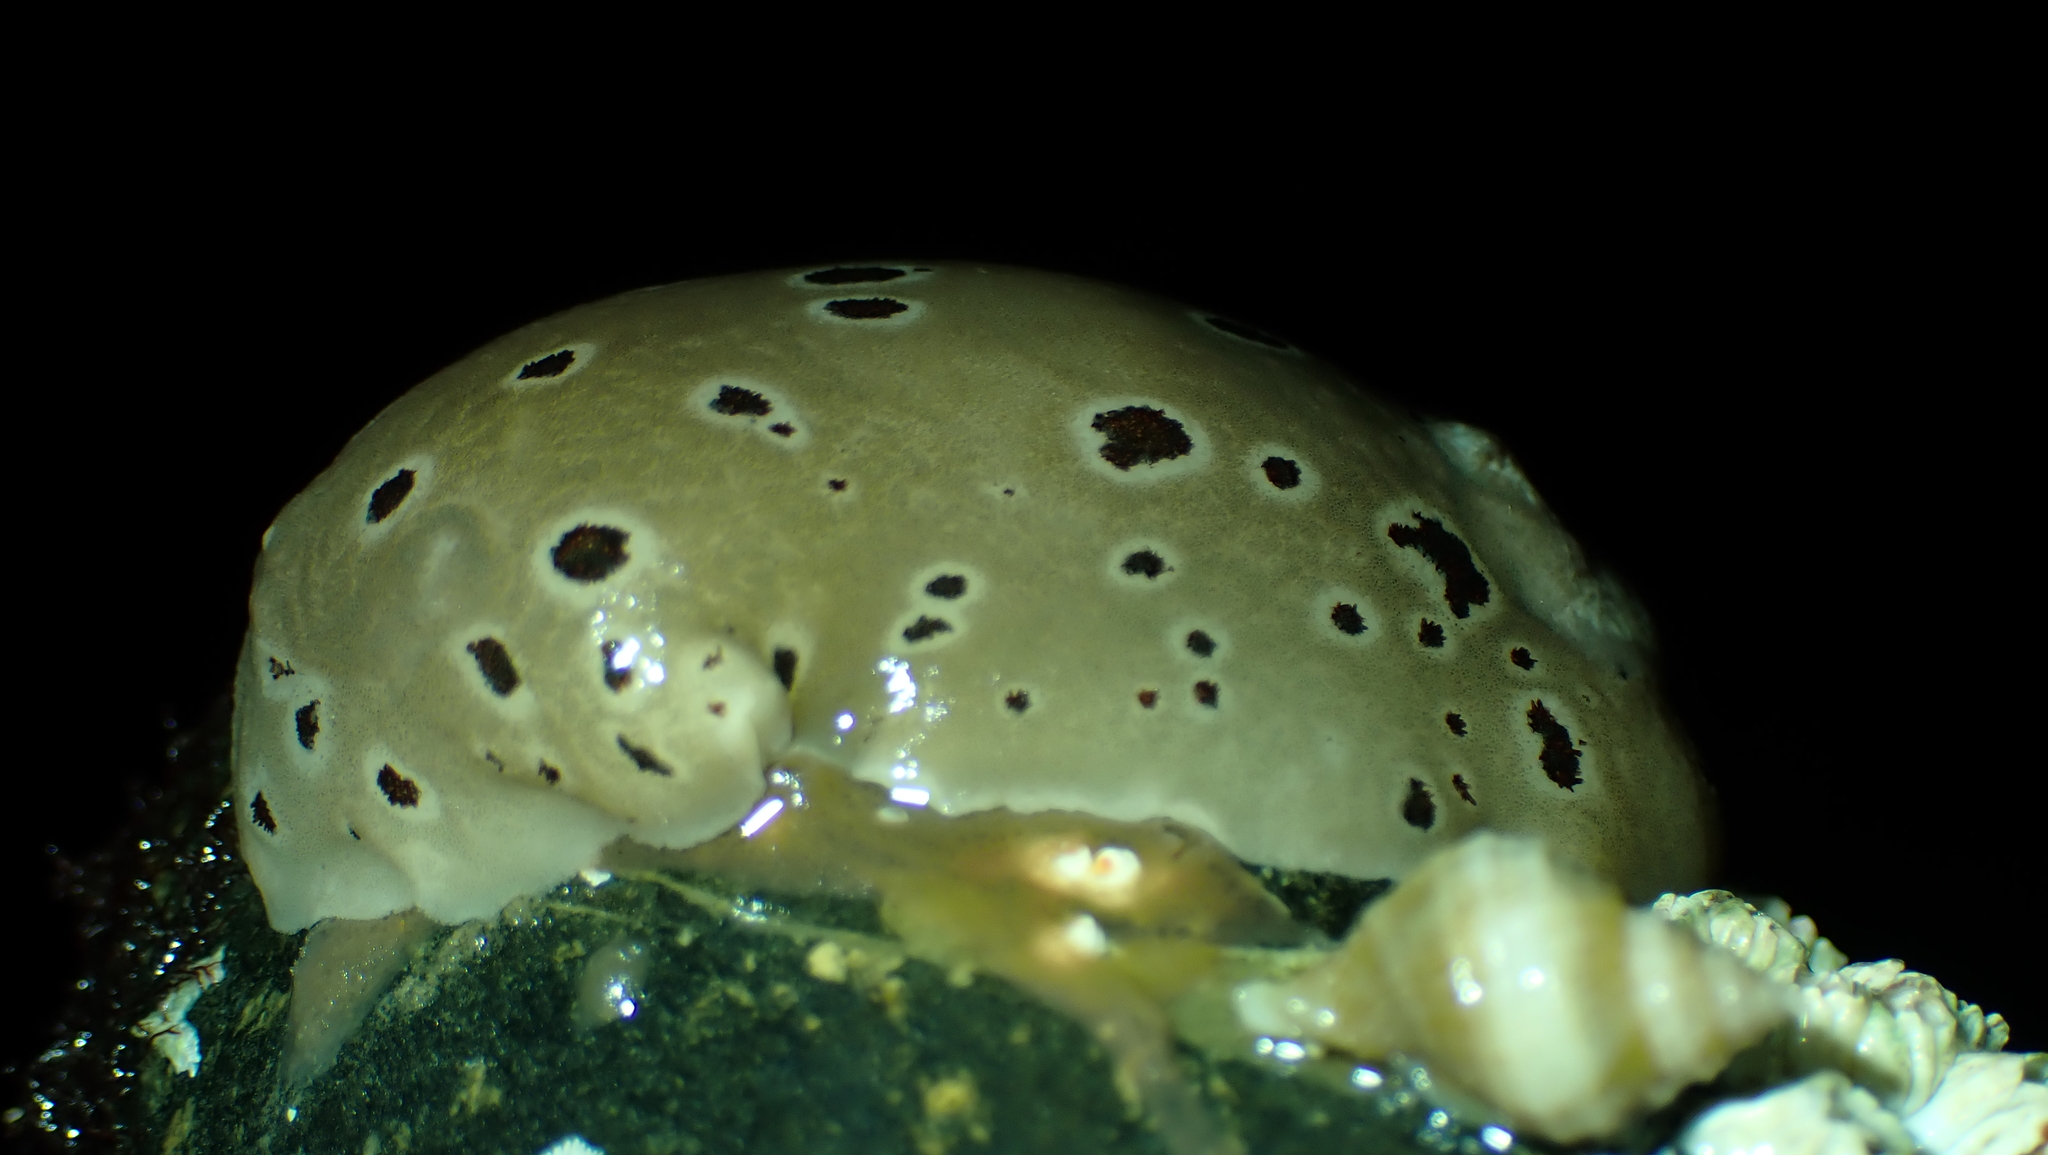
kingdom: Animalia
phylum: Mollusca
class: Gastropoda
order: Nudibranchia
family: Discodorididae
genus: Diaulula
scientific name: Diaulula odonoghuei
